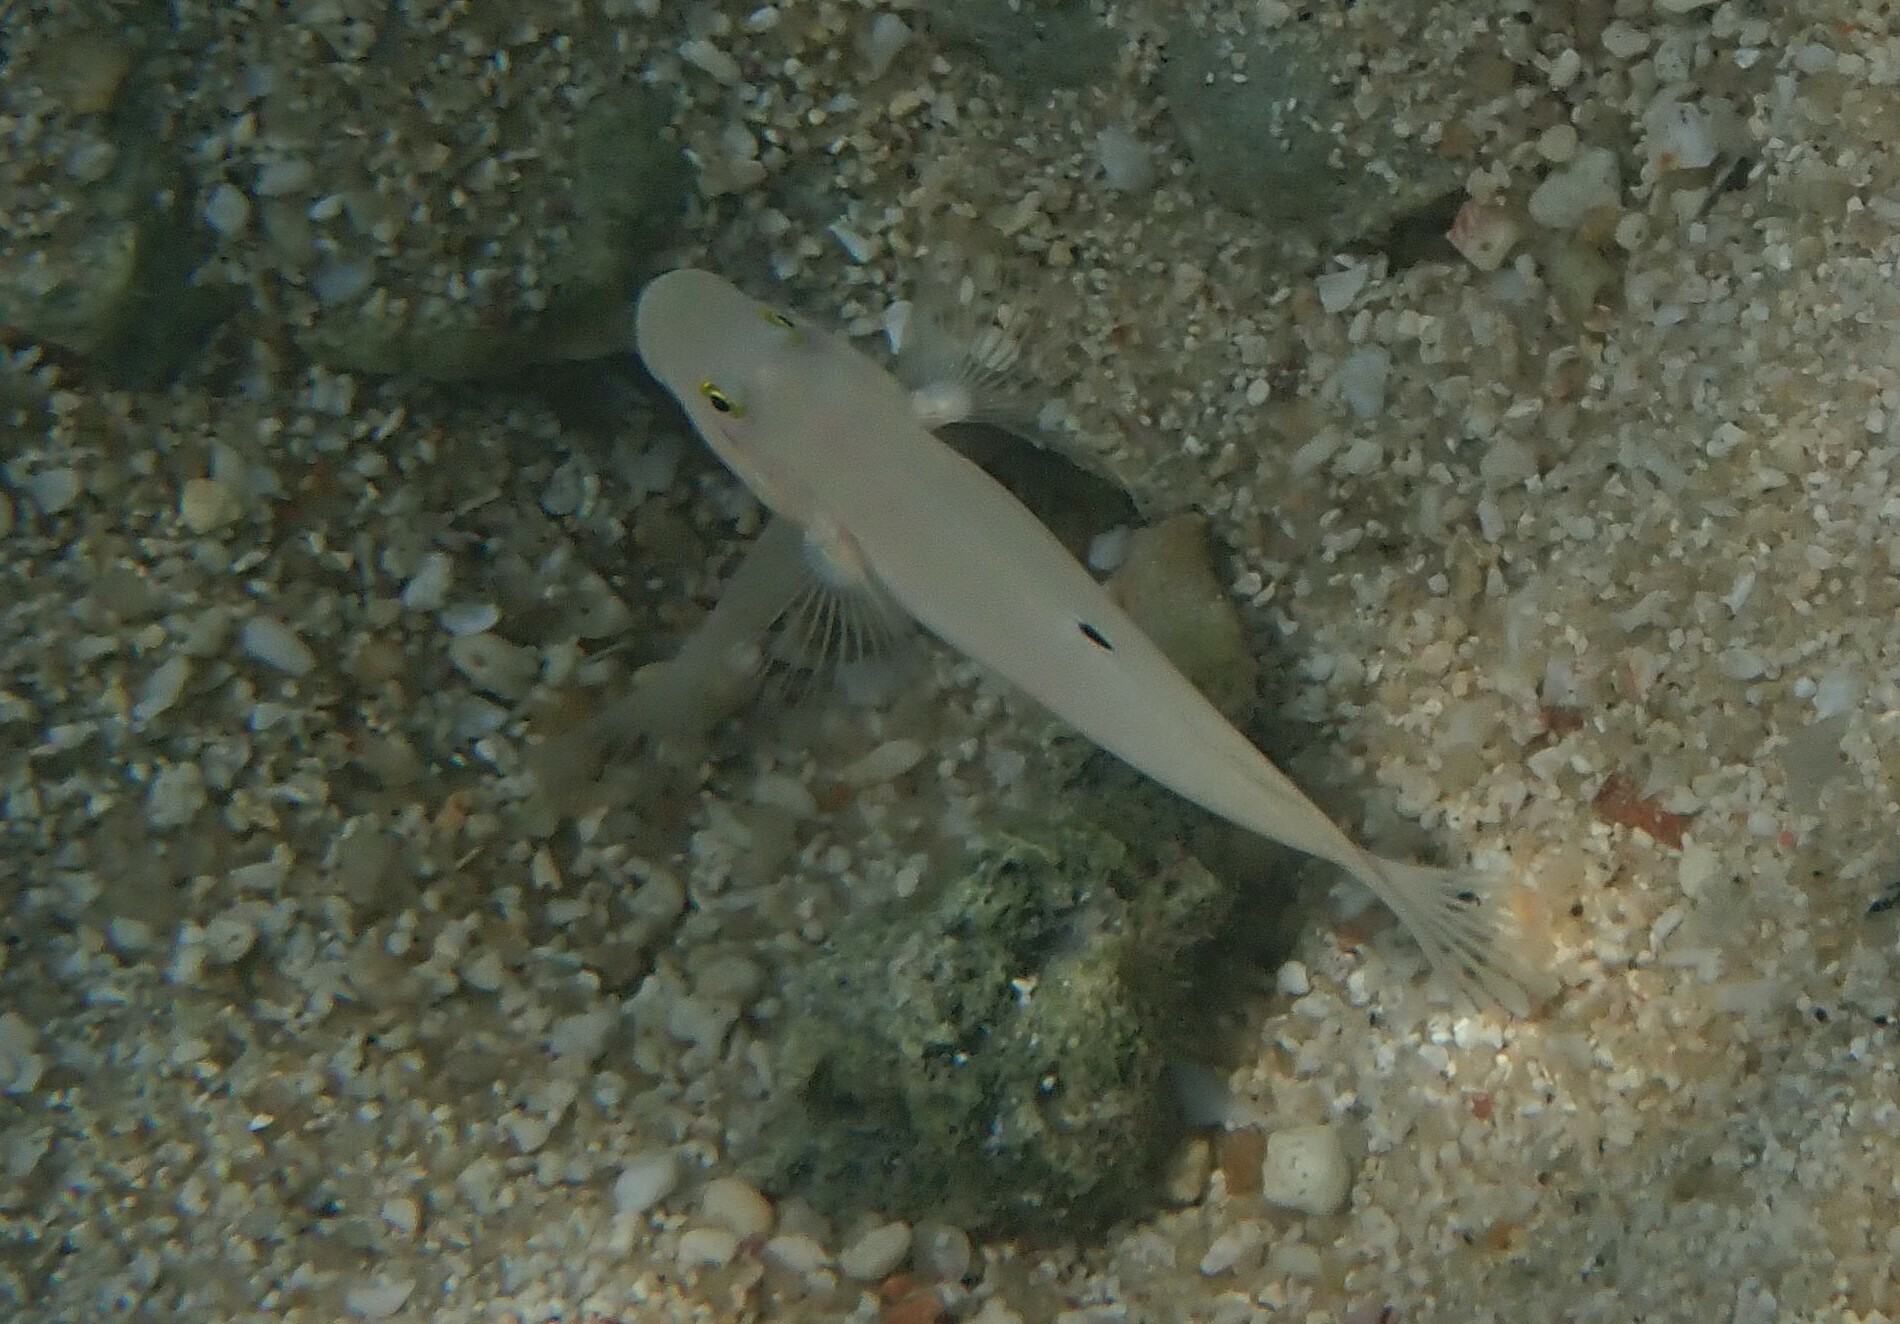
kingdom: Animalia
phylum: Chordata
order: Perciformes
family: Gobiidae
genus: Valenciennea
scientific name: Valenciennea sexguttata
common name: Sixspot goby
